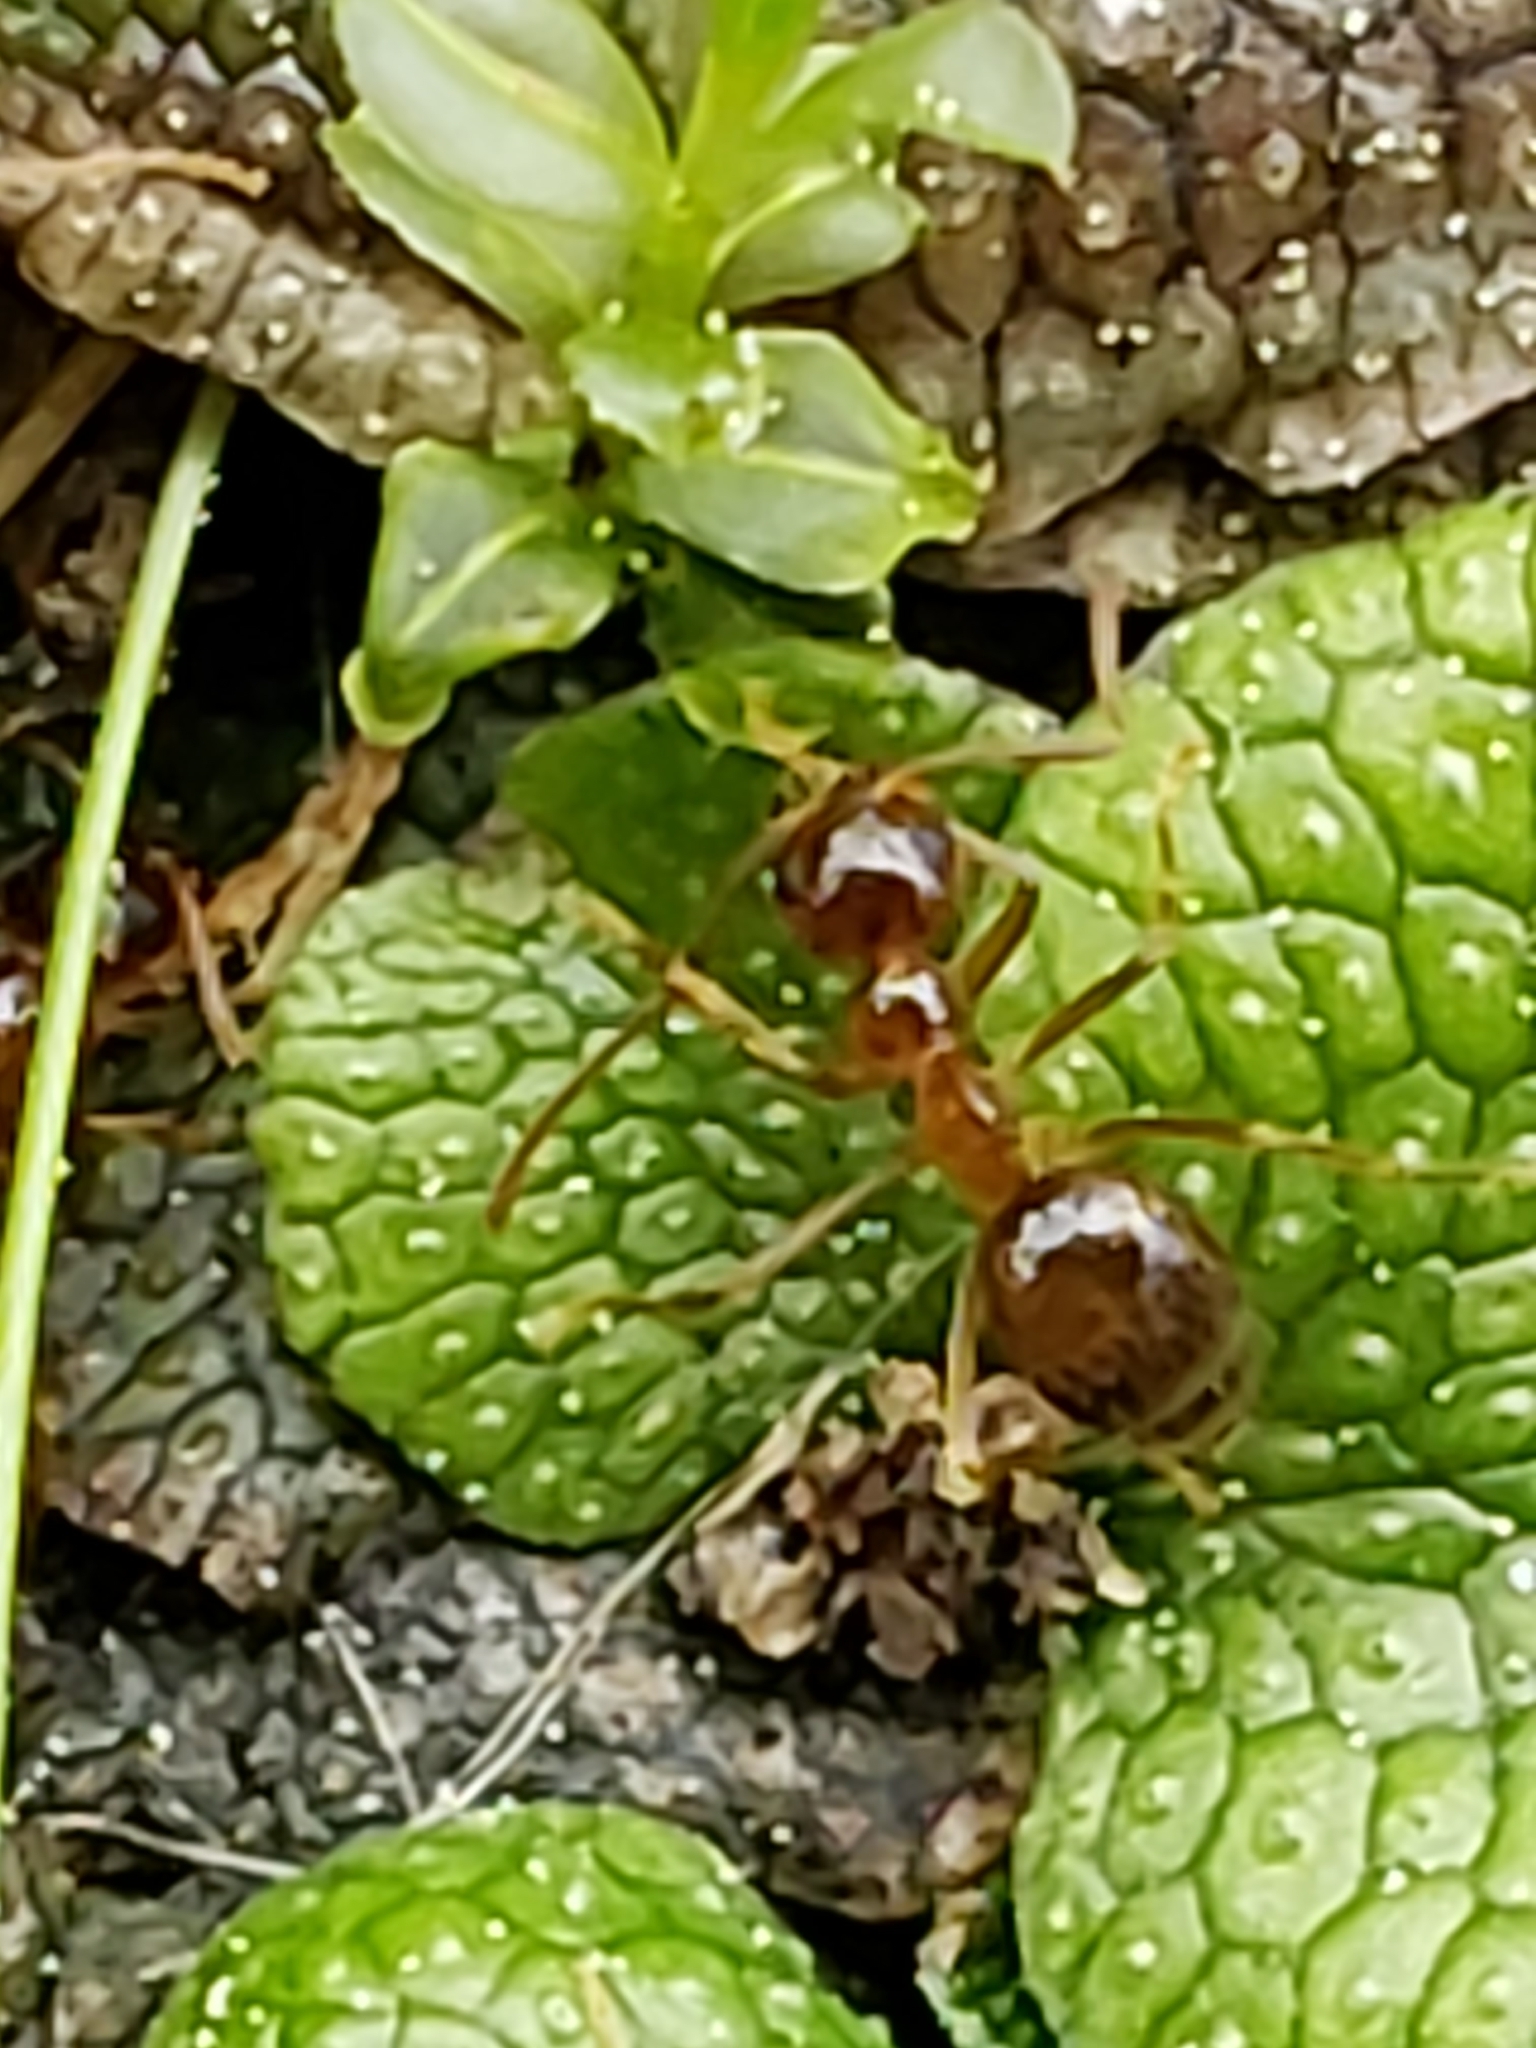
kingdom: Animalia
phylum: Arthropoda
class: Insecta
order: Hymenoptera
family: Formicidae
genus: Prenolepis
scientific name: Prenolepis imparis
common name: Small honey ant
